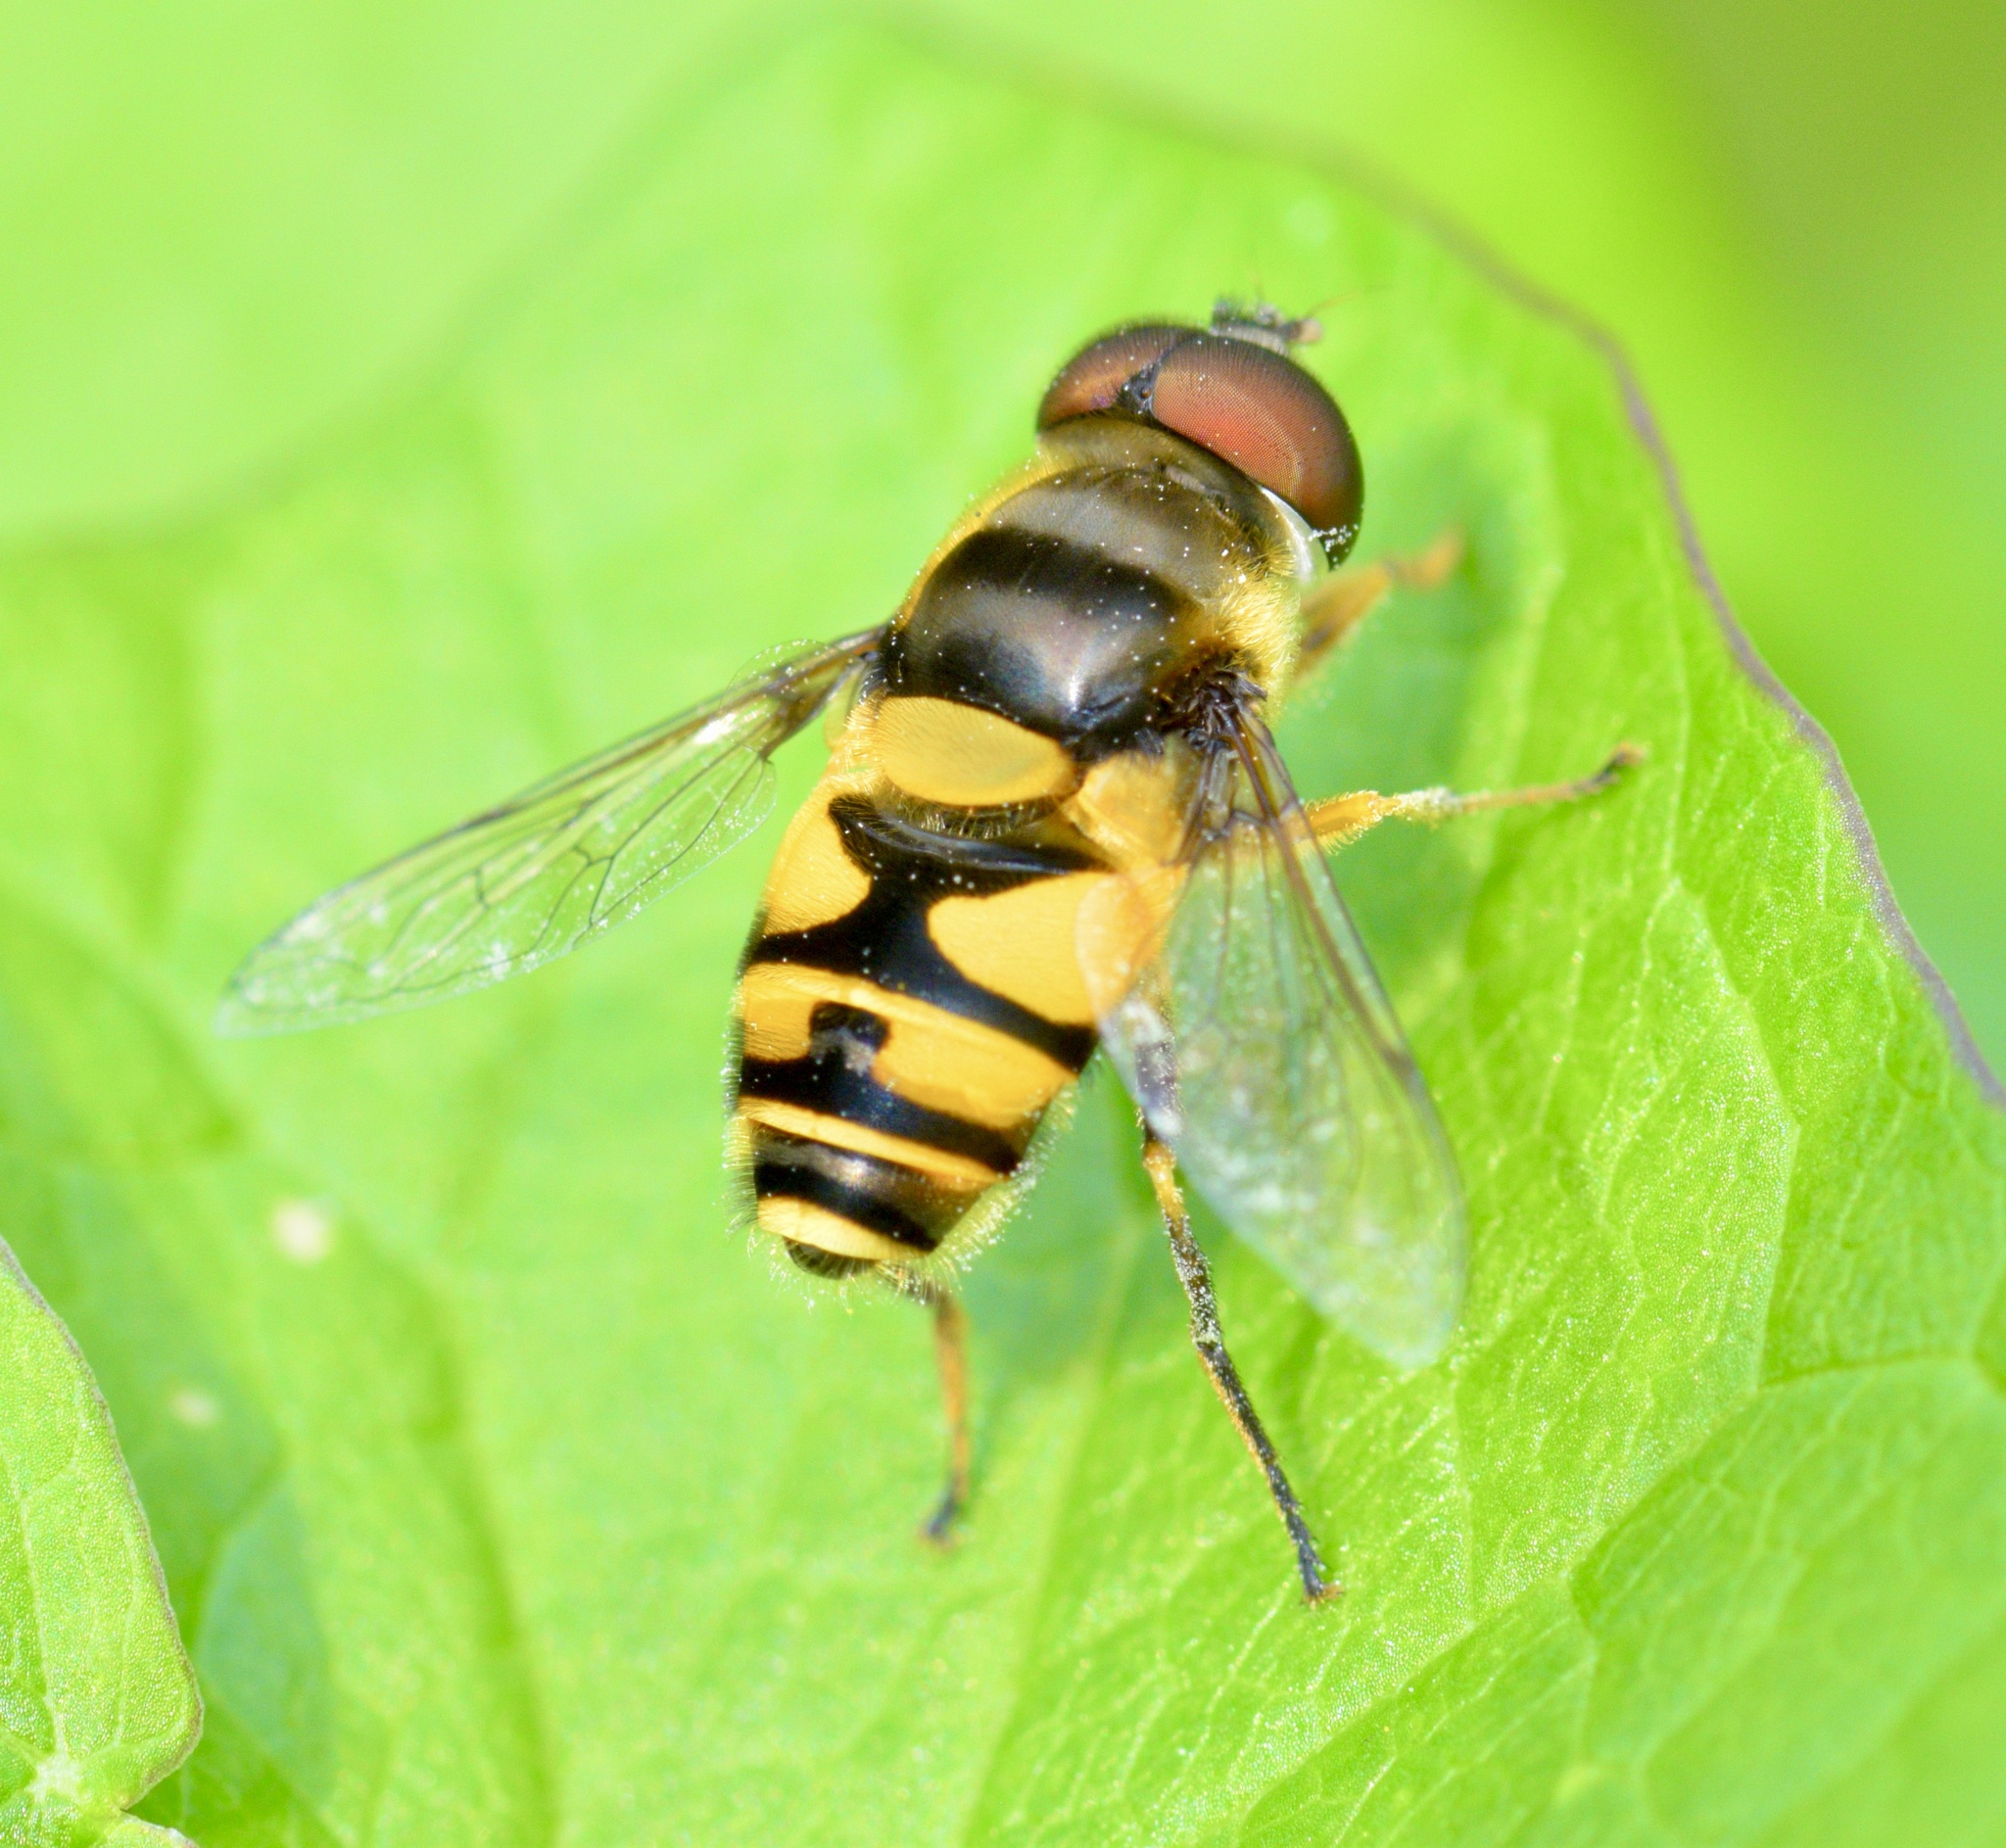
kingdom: Animalia
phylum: Arthropoda
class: Insecta
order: Diptera
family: Syrphidae
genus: Eristalis
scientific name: Eristalis transversa
